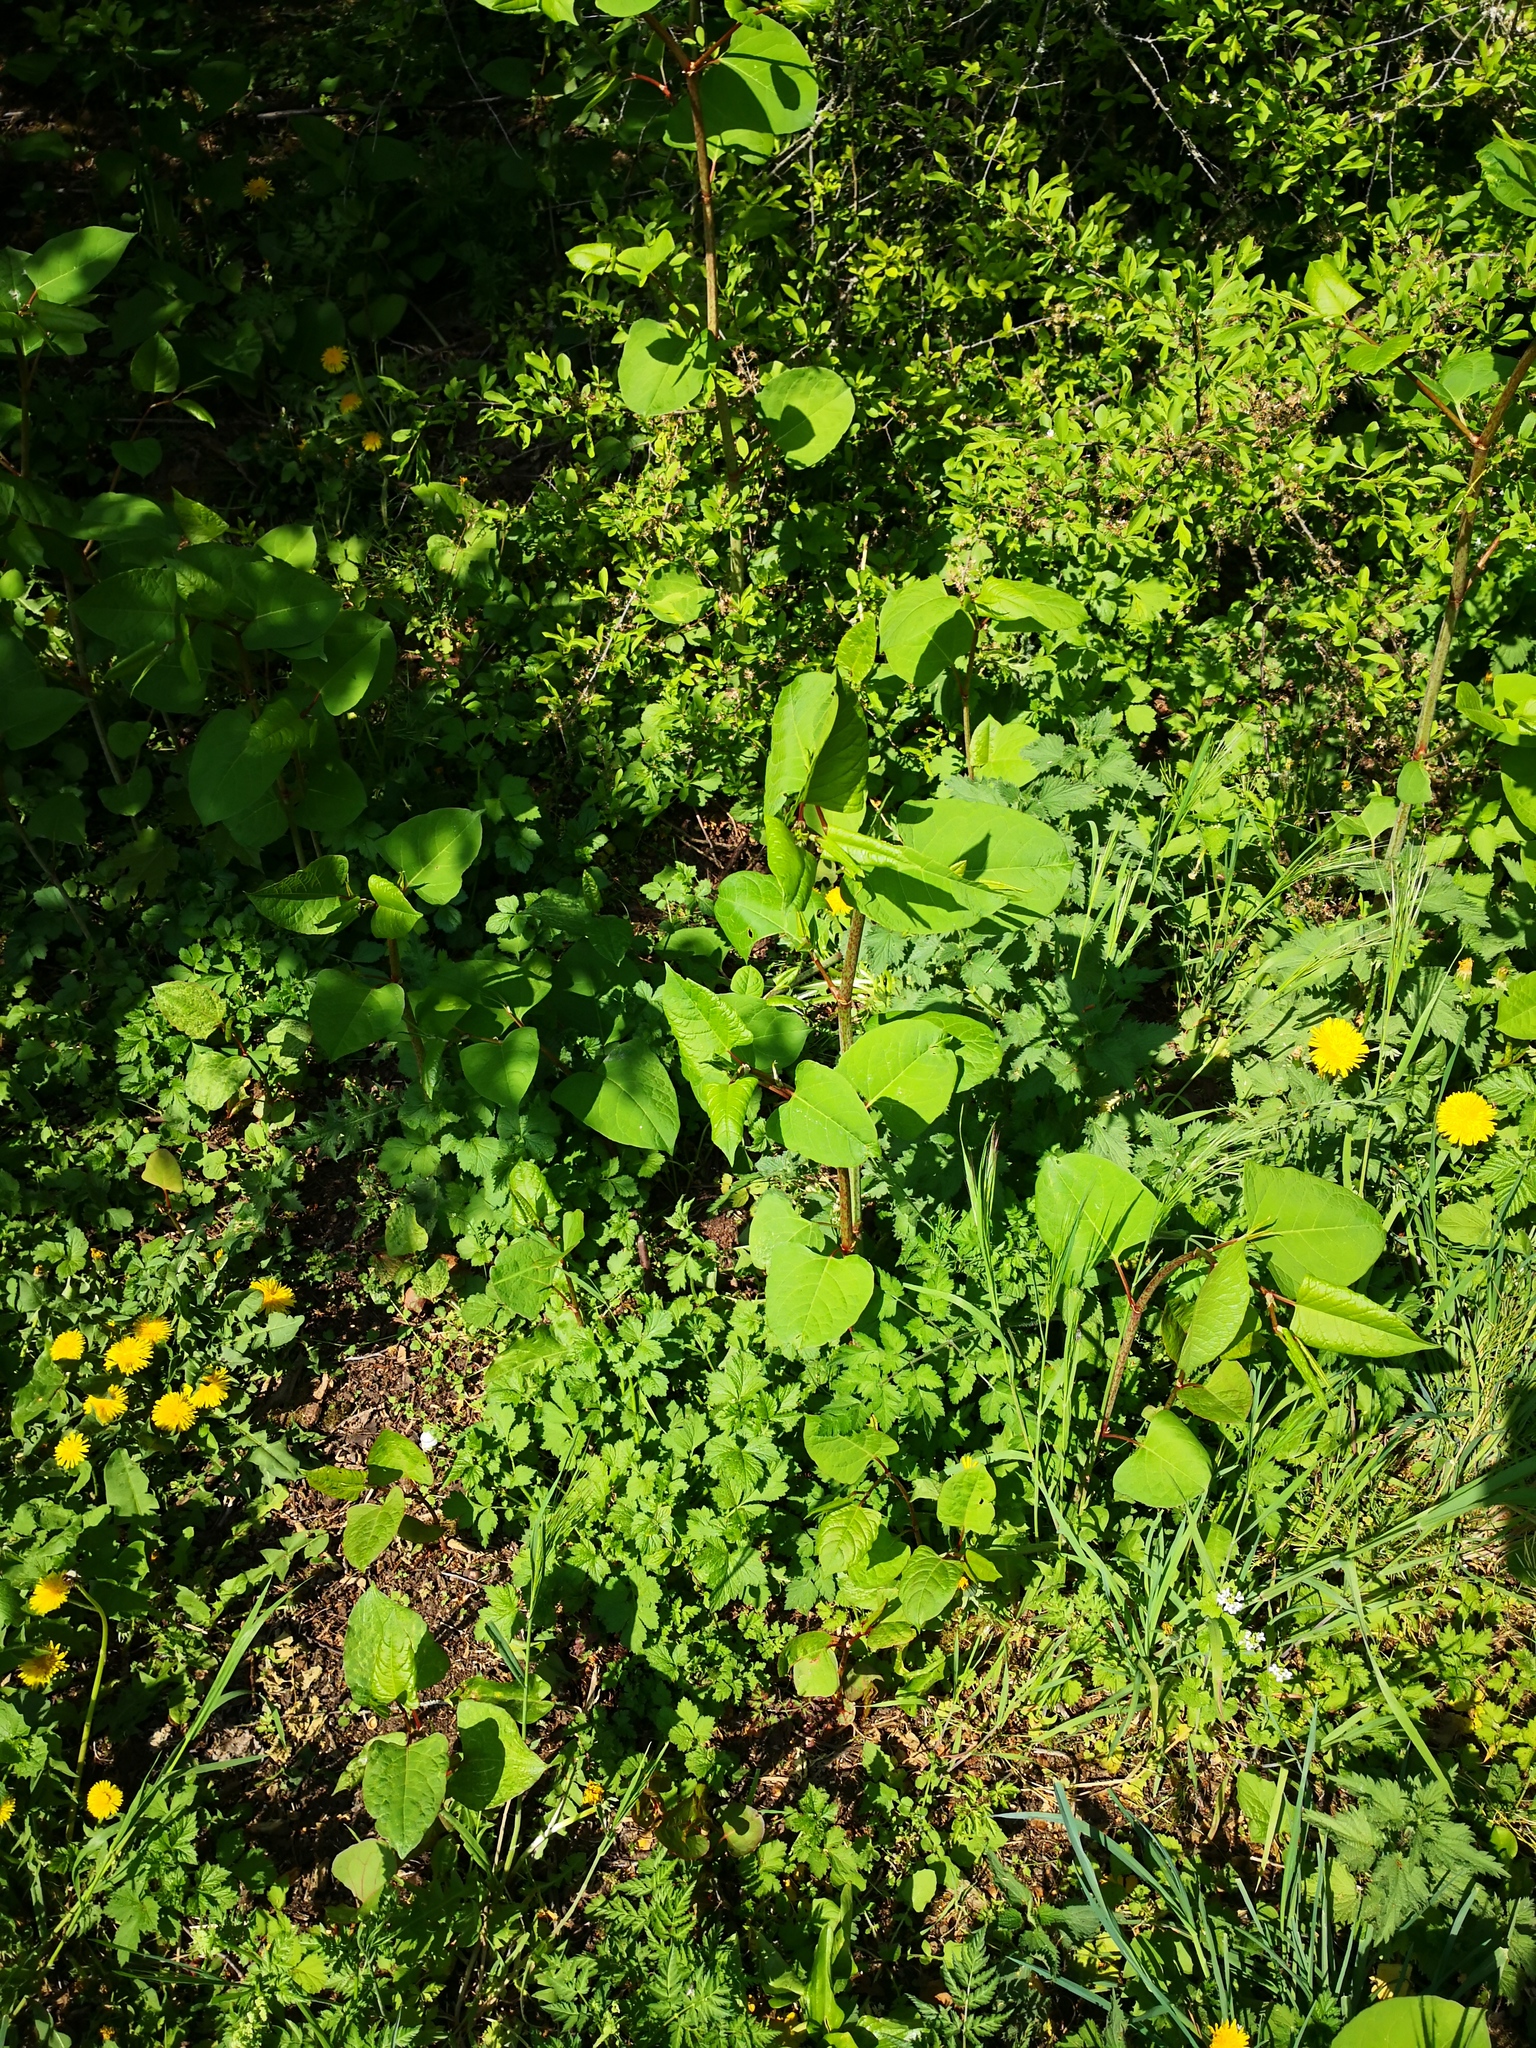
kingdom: Plantae
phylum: Tracheophyta
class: Magnoliopsida
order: Caryophyllales
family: Polygonaceae
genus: Reynoutria
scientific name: Reynoutria japonica
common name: Japanese knotweed
